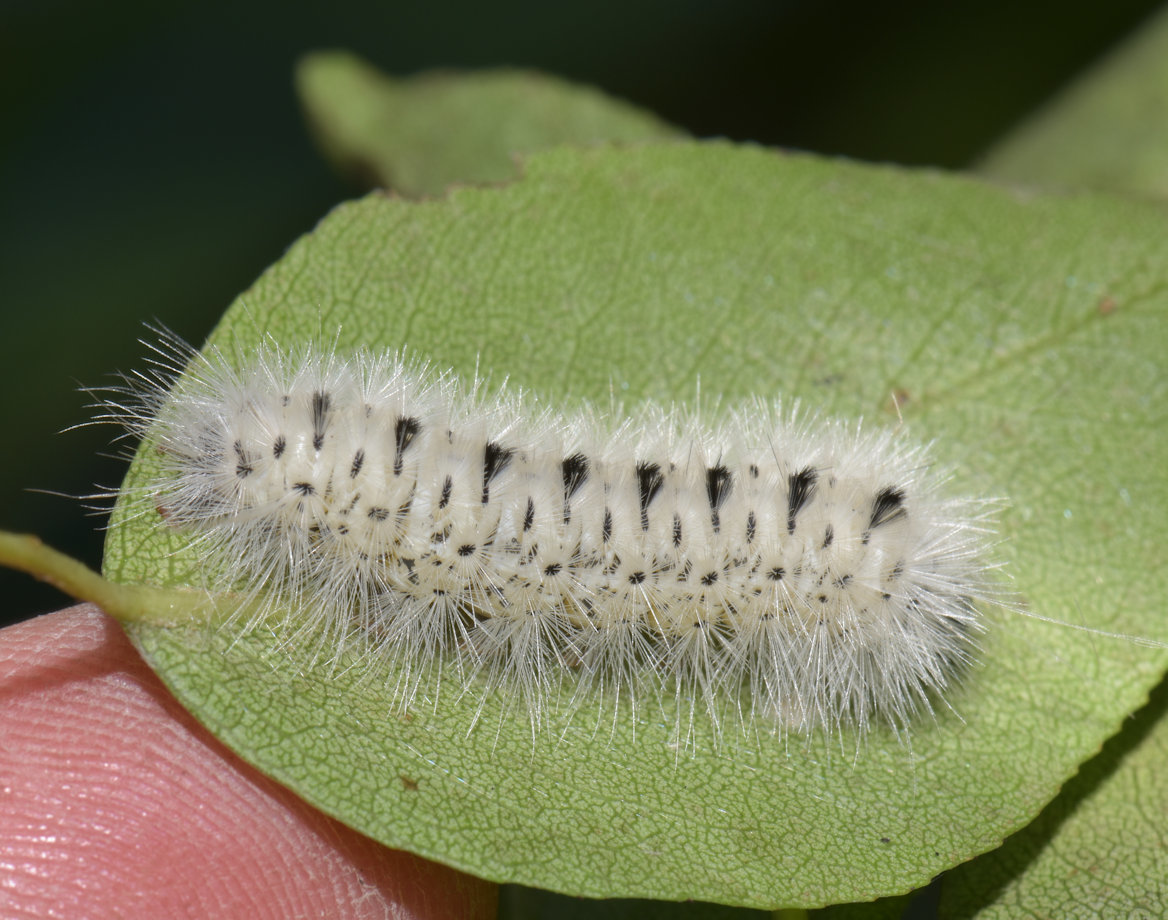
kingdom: Animalia
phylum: Arthropoda
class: Insecta
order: Lepidoptera
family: Erebidae
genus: Lophocampa
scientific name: Lophocampa caryae
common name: Hickory tussock moth
